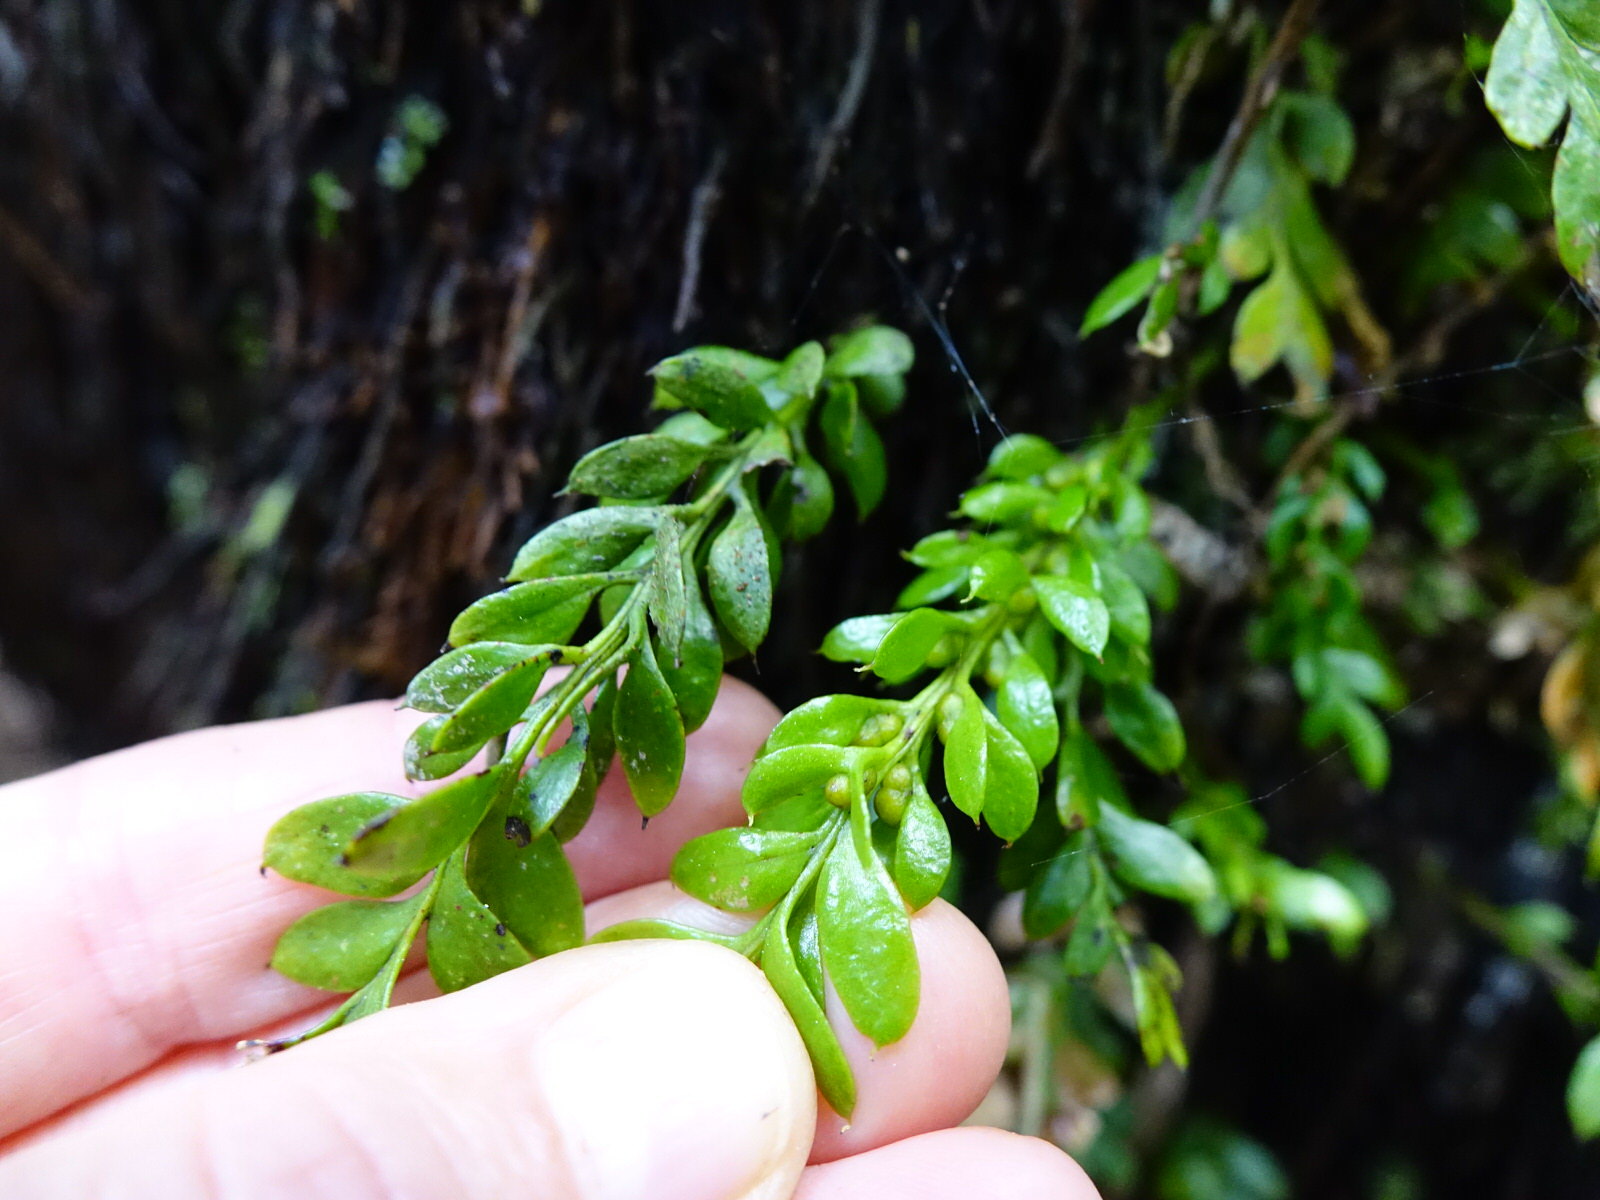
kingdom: Plantae
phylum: Tracheophyta
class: Polypodiopsida
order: Psilotales
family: Psilotaceae
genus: Tmesipteris
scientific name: Tmesipteris lanceolata
